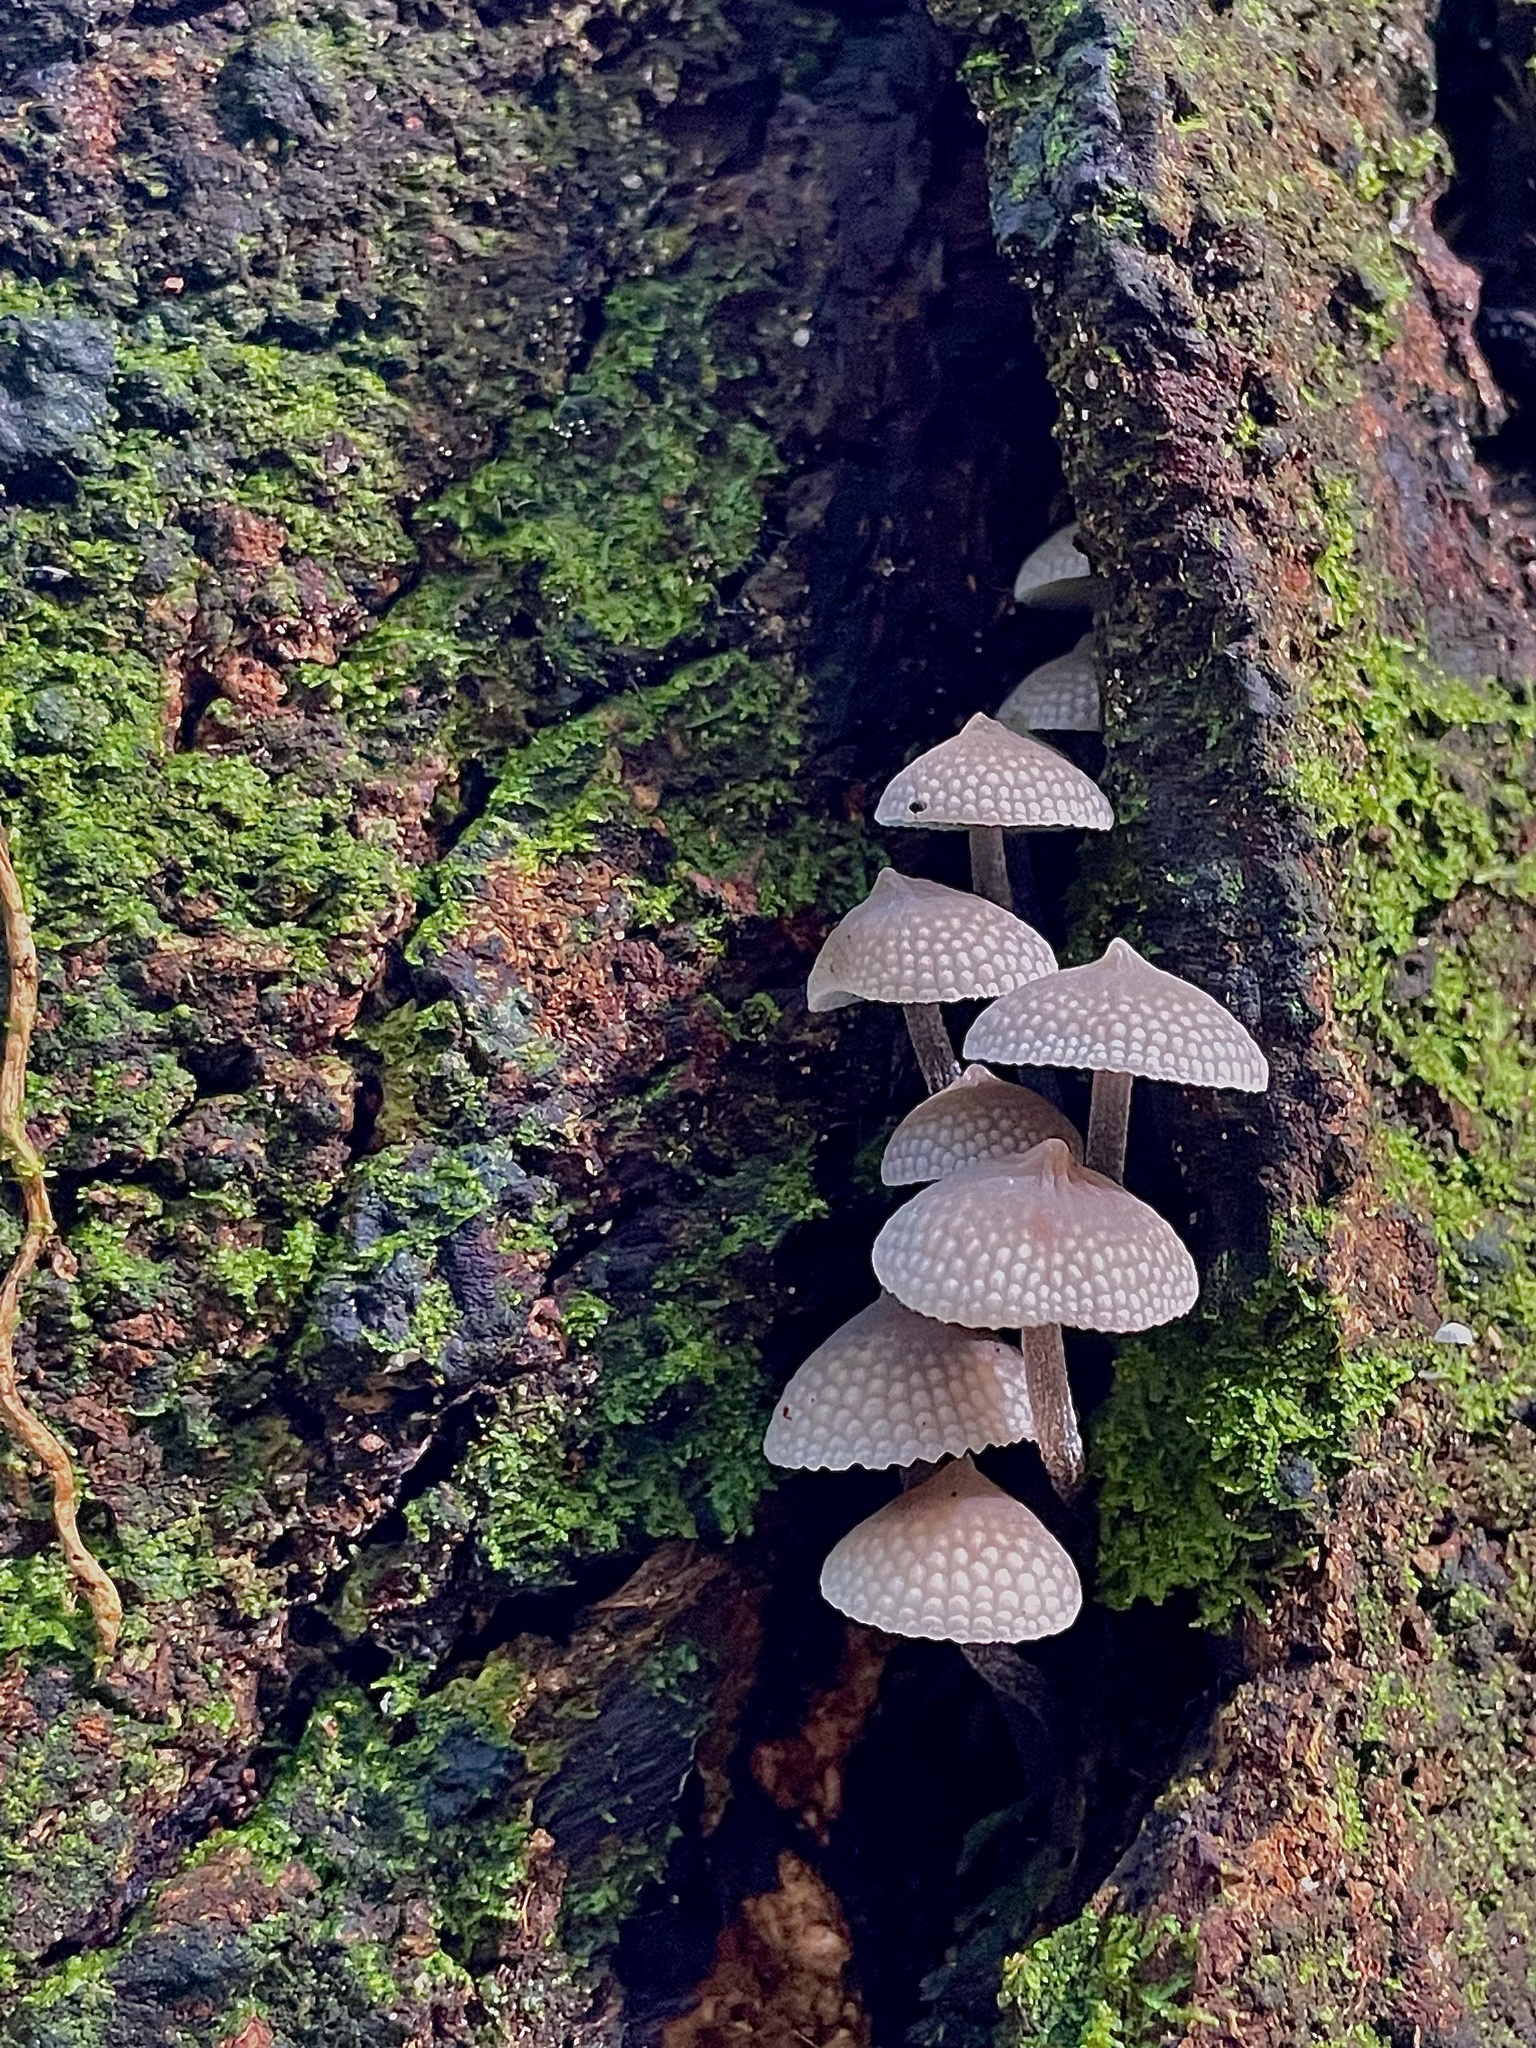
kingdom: Fungi
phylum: Basidiomycota
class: Agaricomycetes
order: Agaricales
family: Mycenaceae
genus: Filoboletus
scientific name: Filoboletus manipularis
